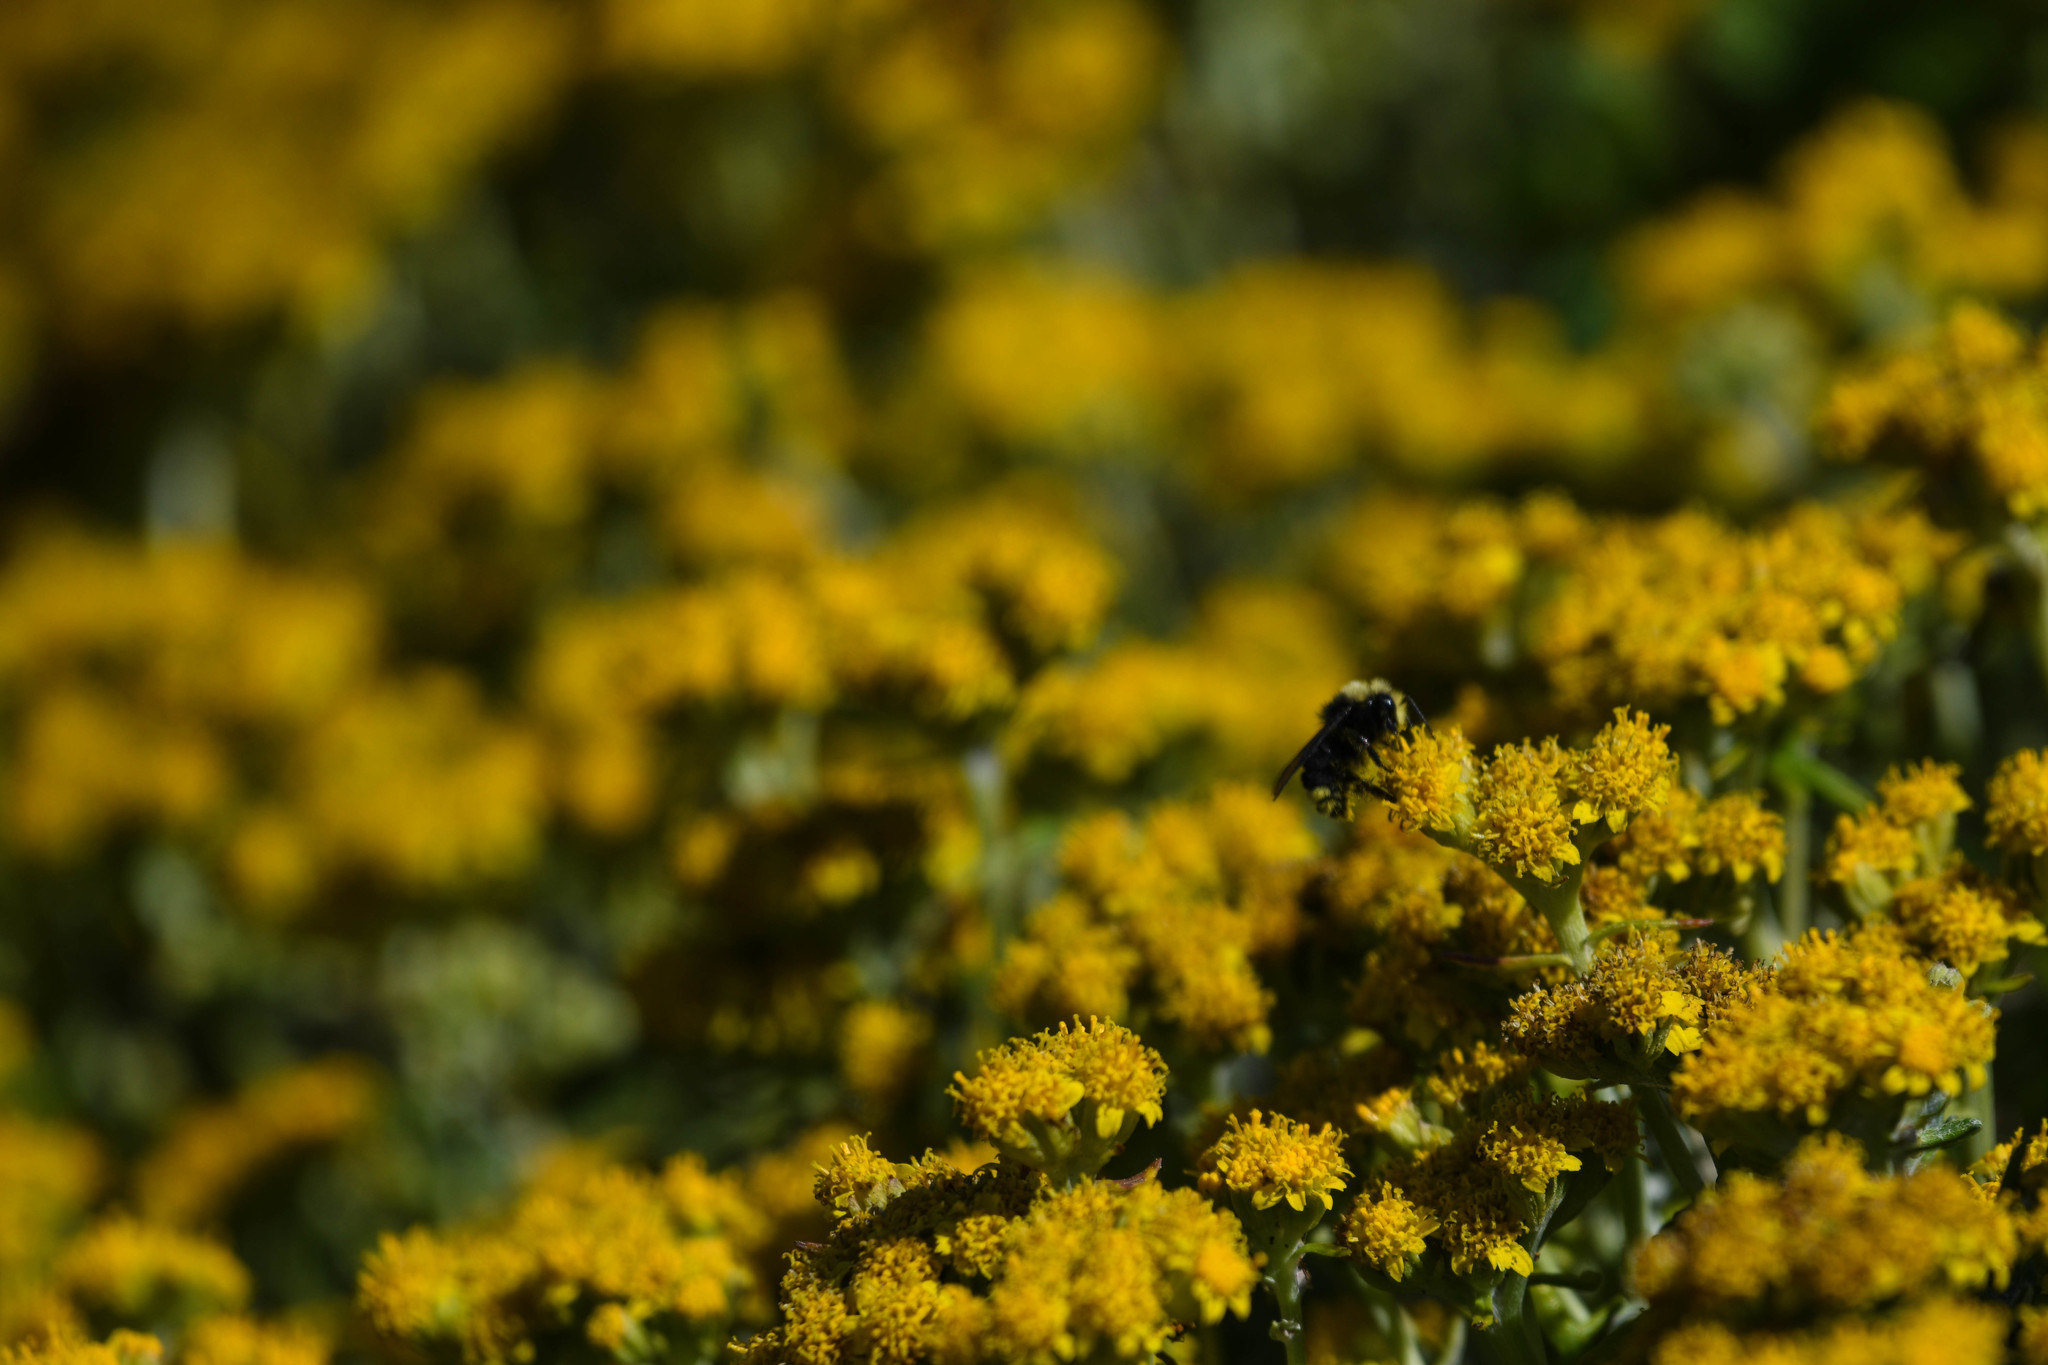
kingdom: Animalia
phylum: Arthropoda
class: Insecta
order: Hymenoptera
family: Apidae
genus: Pyrobombus
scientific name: Pyrobombus
